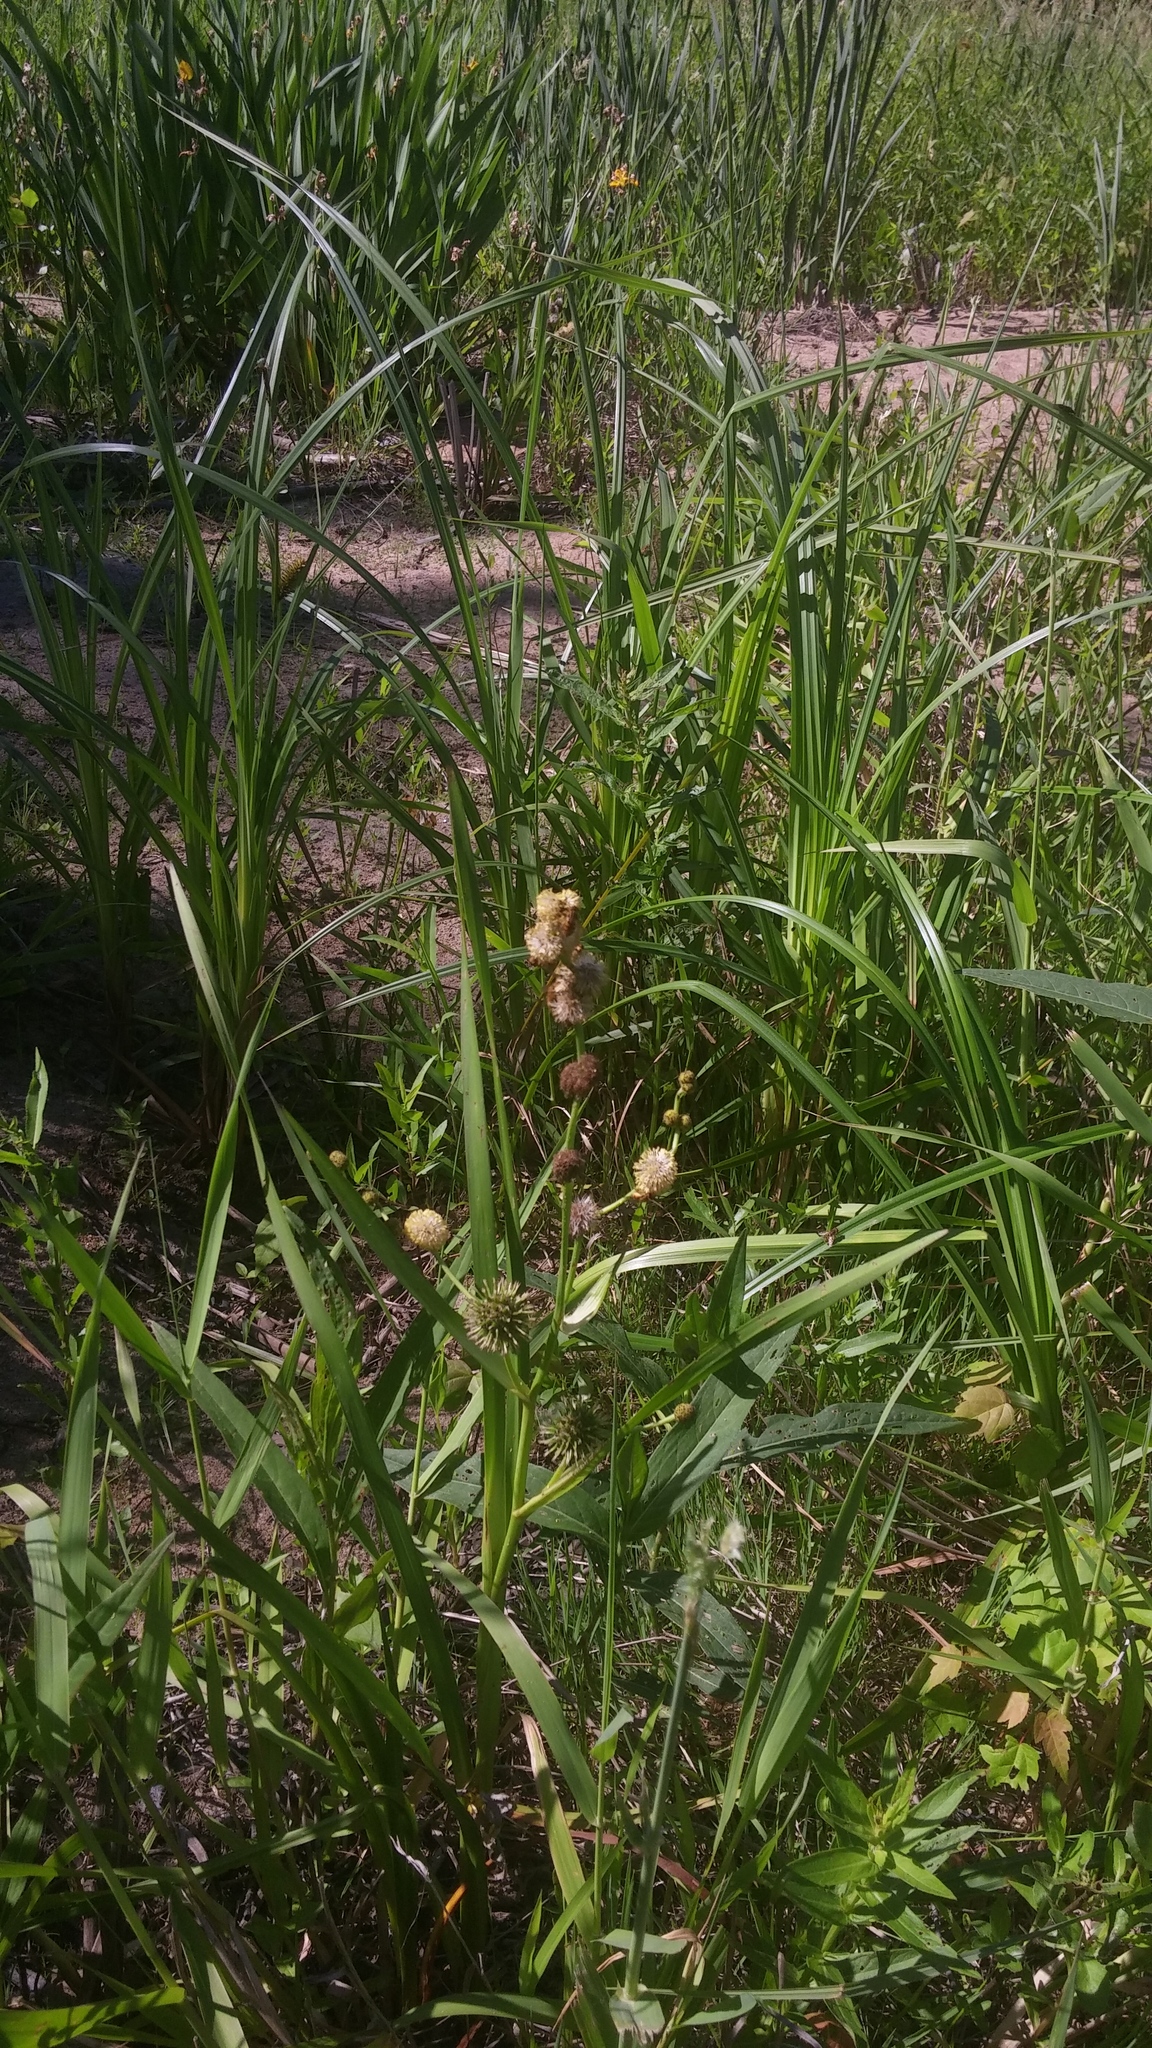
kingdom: Plantae
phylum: Tracheophyta
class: Liliopsida
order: Poales
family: Typhaceae
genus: Sparganium
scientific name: Sparganium eurycarpum
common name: Broad-fruited burreed
